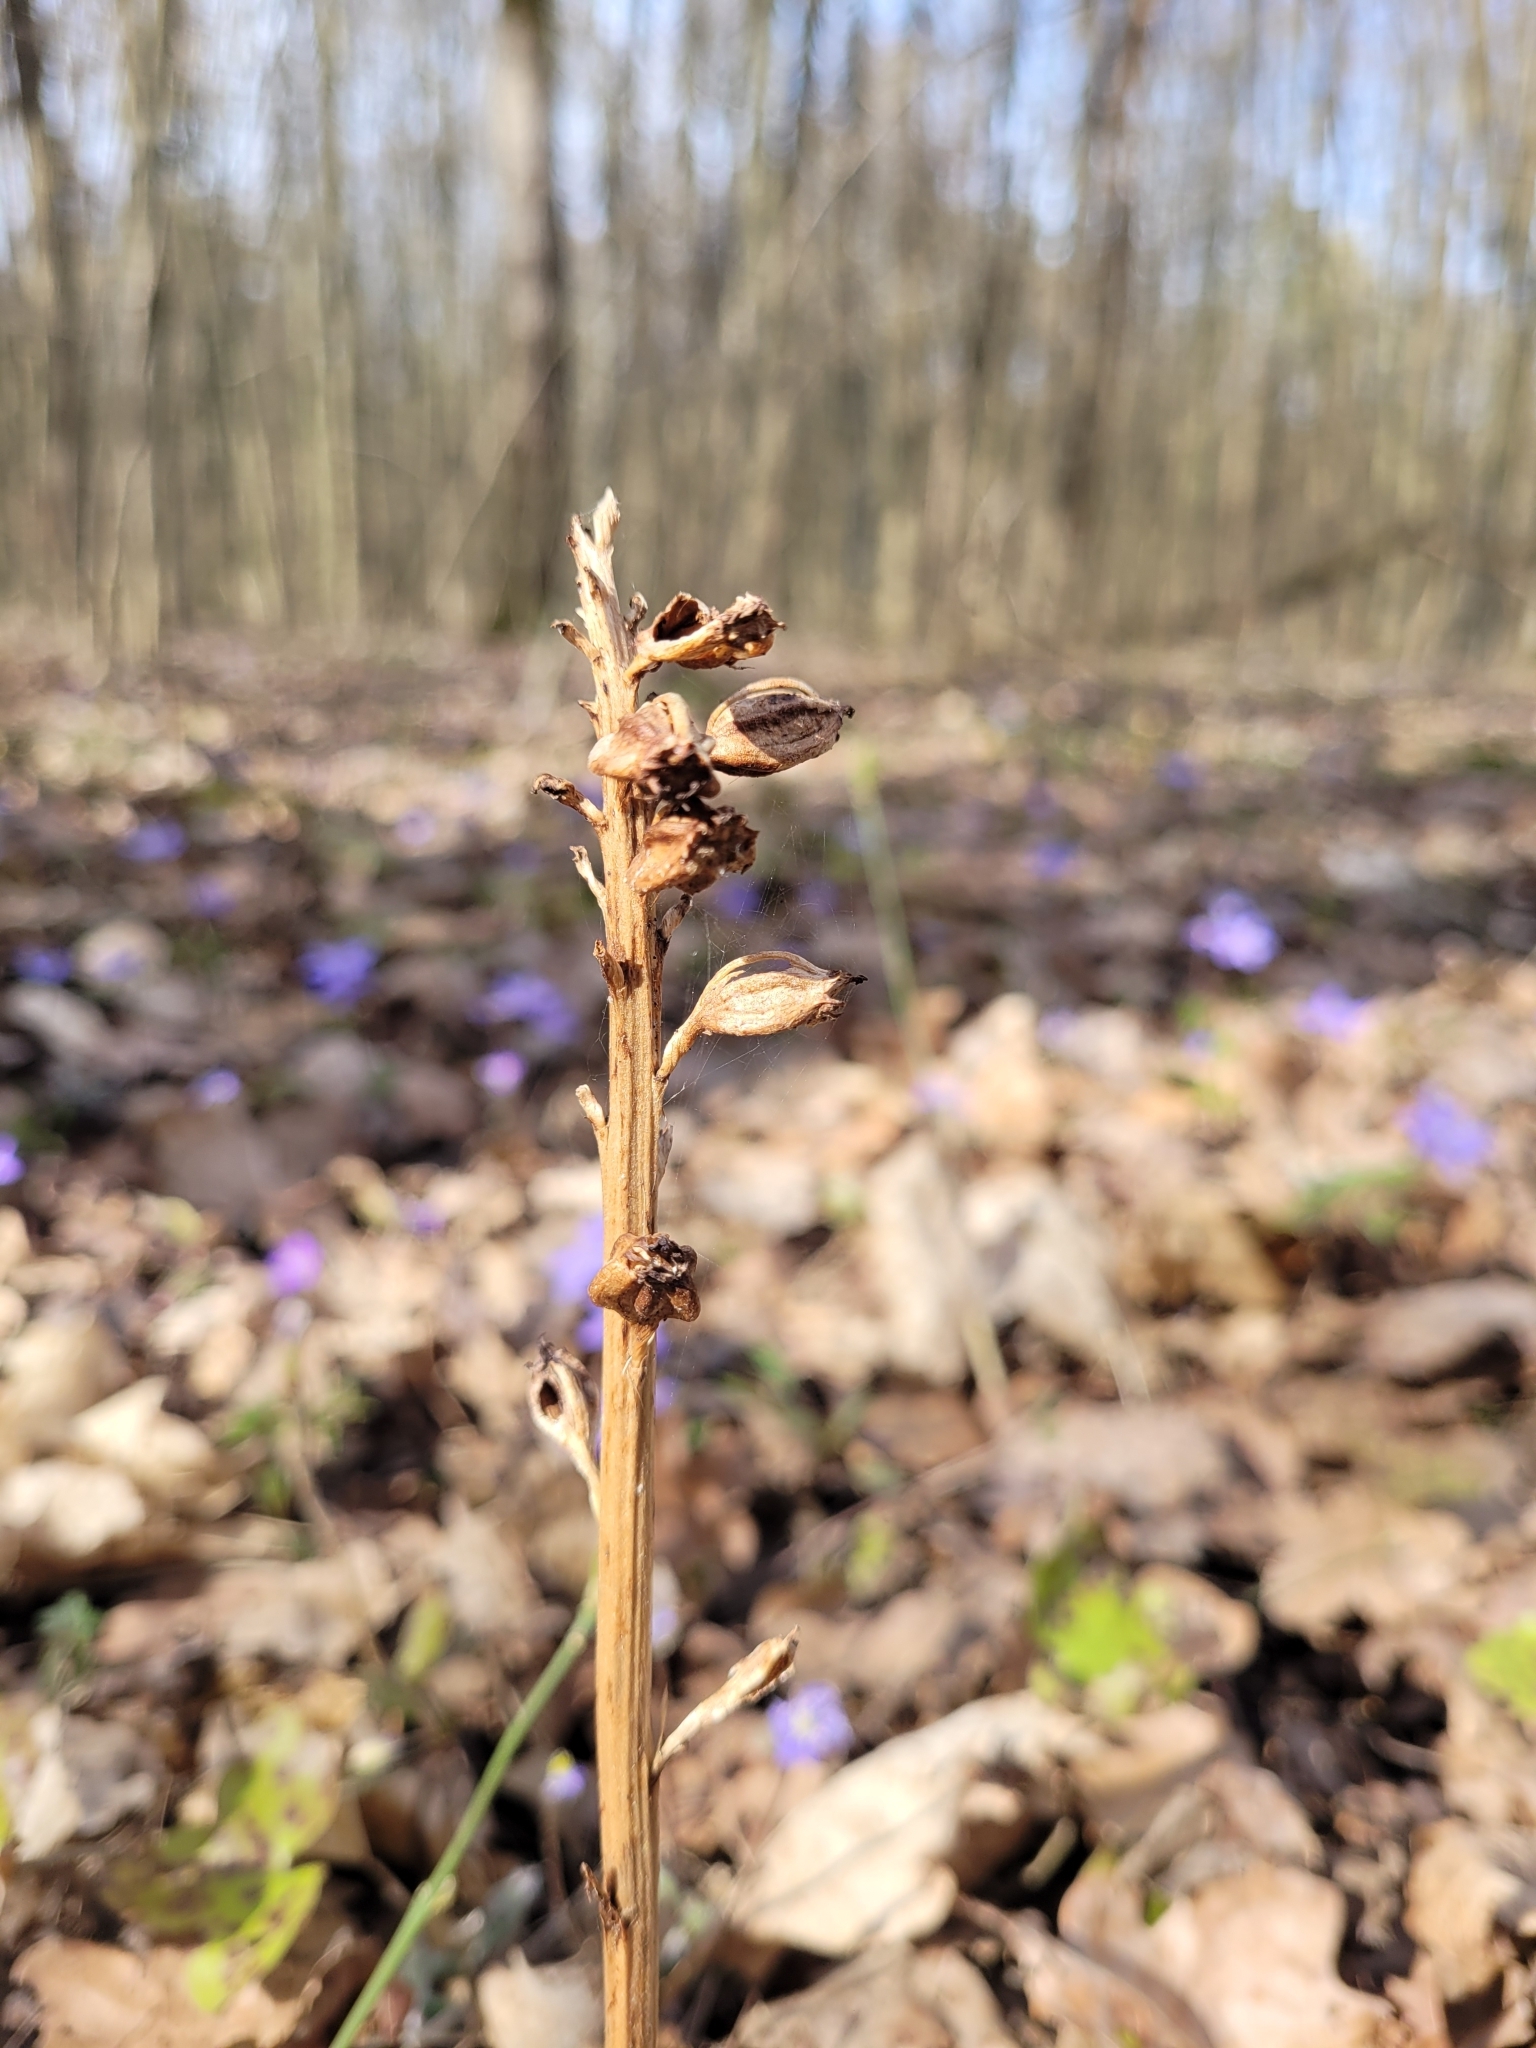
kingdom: Plantae
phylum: Tracheophyta
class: Liliopsida
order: Asparagales
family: Orchidaceae
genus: Neottia
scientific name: Neottia nidus-avis
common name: Bird's-nest orchid
